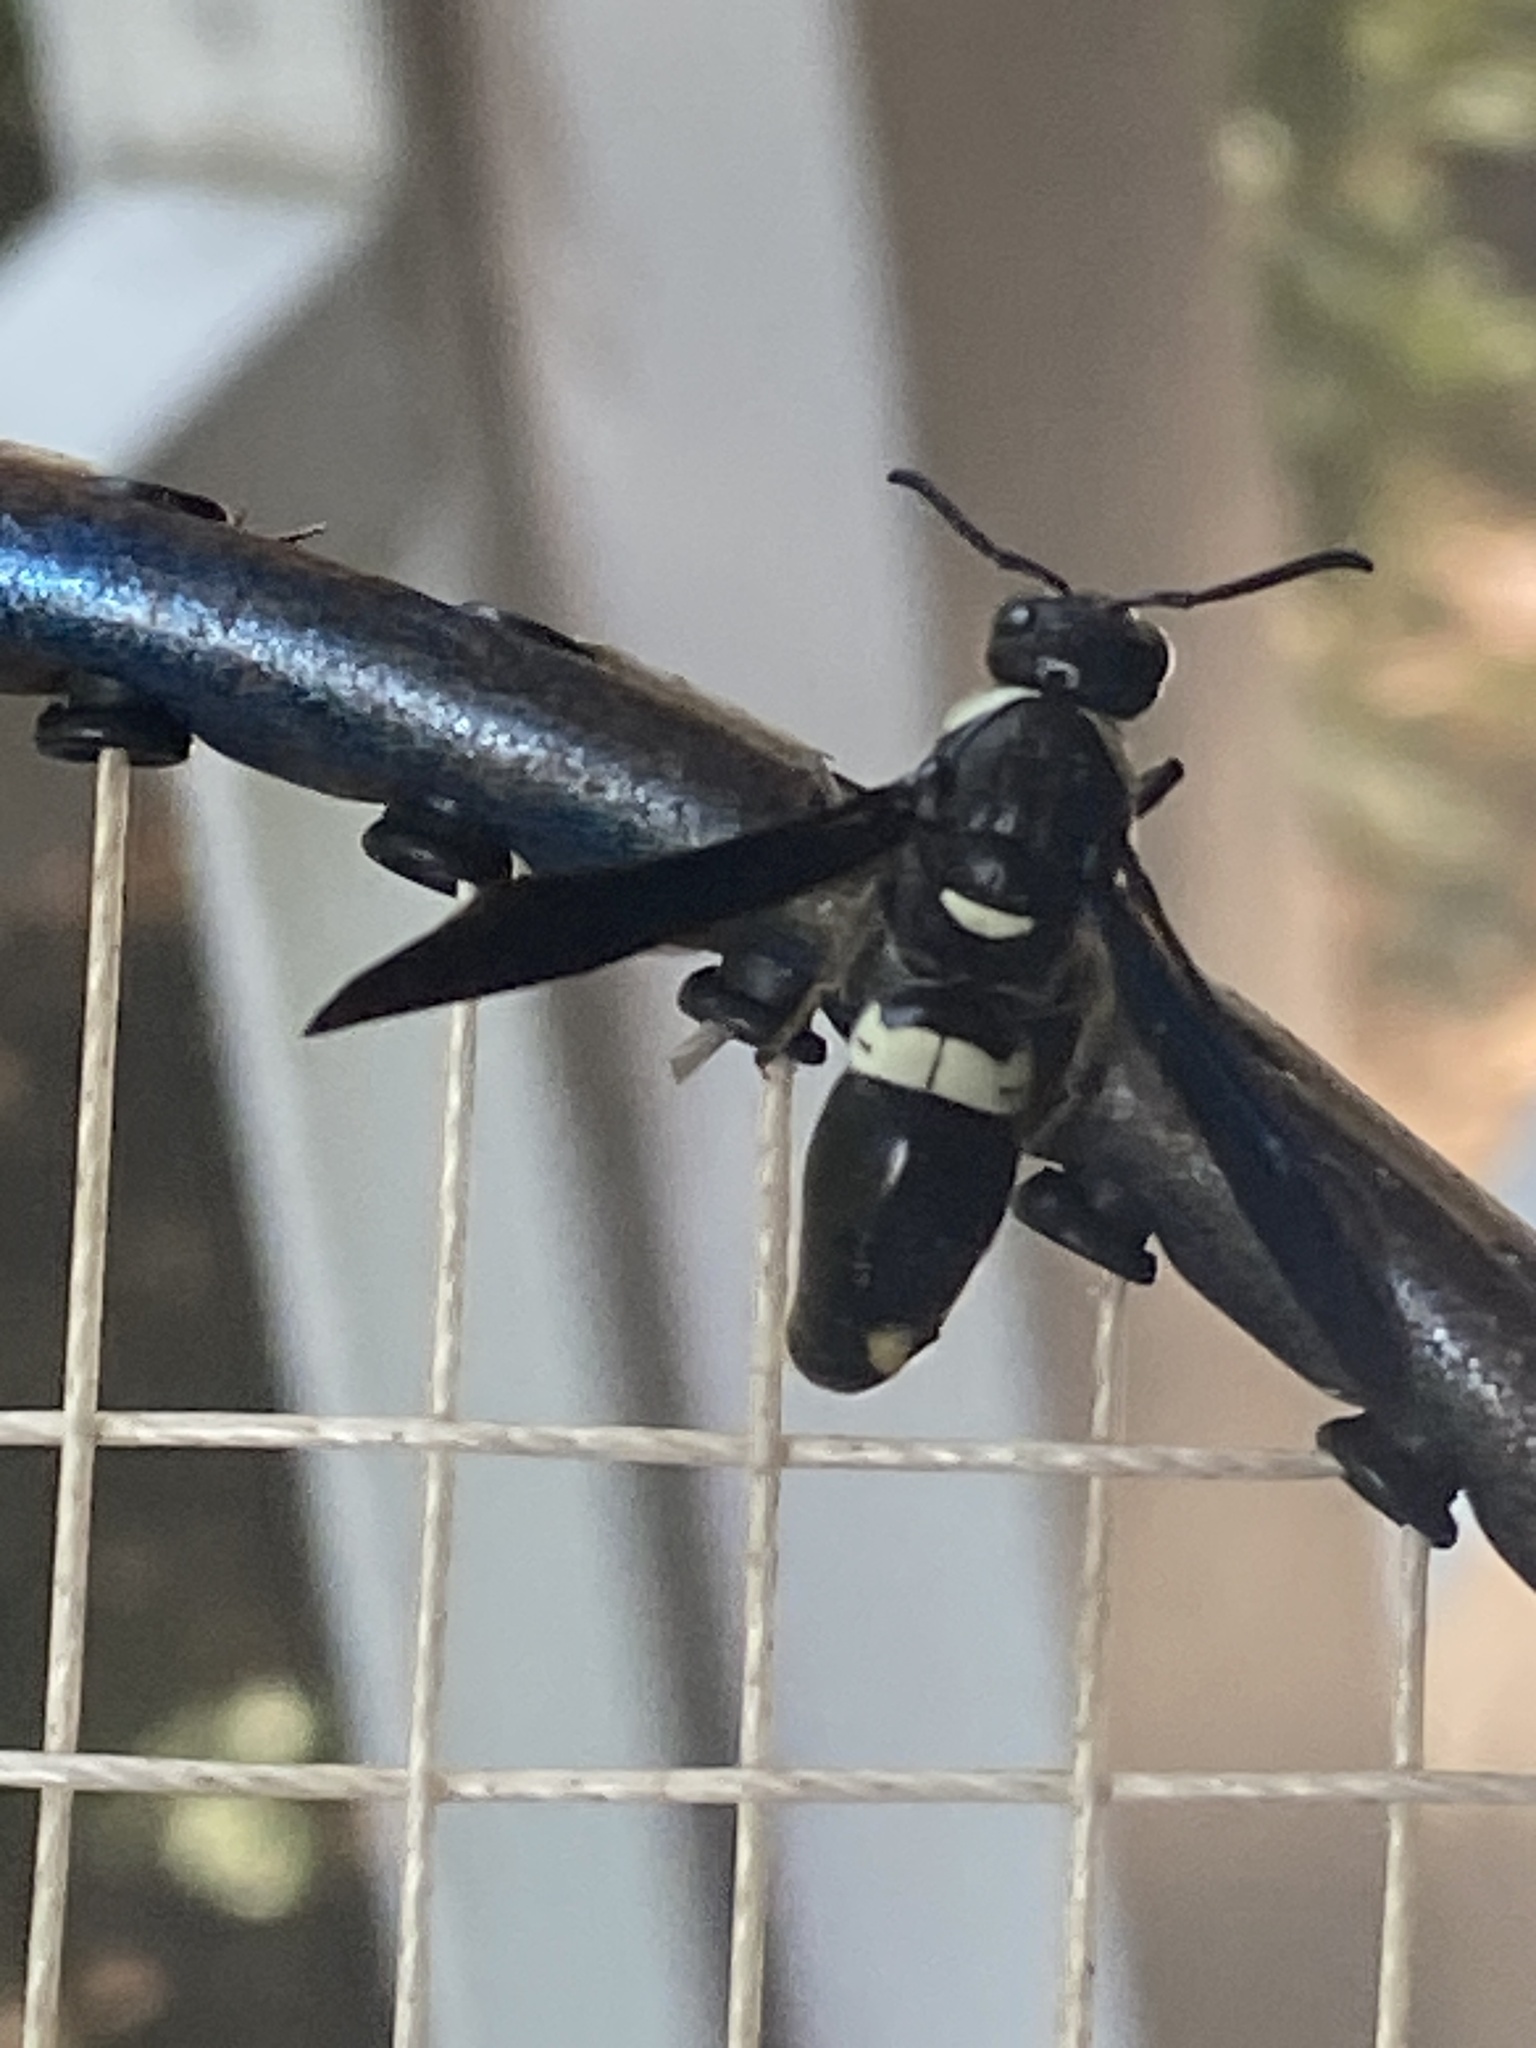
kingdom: Animalia
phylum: Arthropoda
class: Insecta
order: Hymenoptera
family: Eumenidae
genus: Monobia
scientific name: Monobia quadridens
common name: Four-toothed mason wasp
